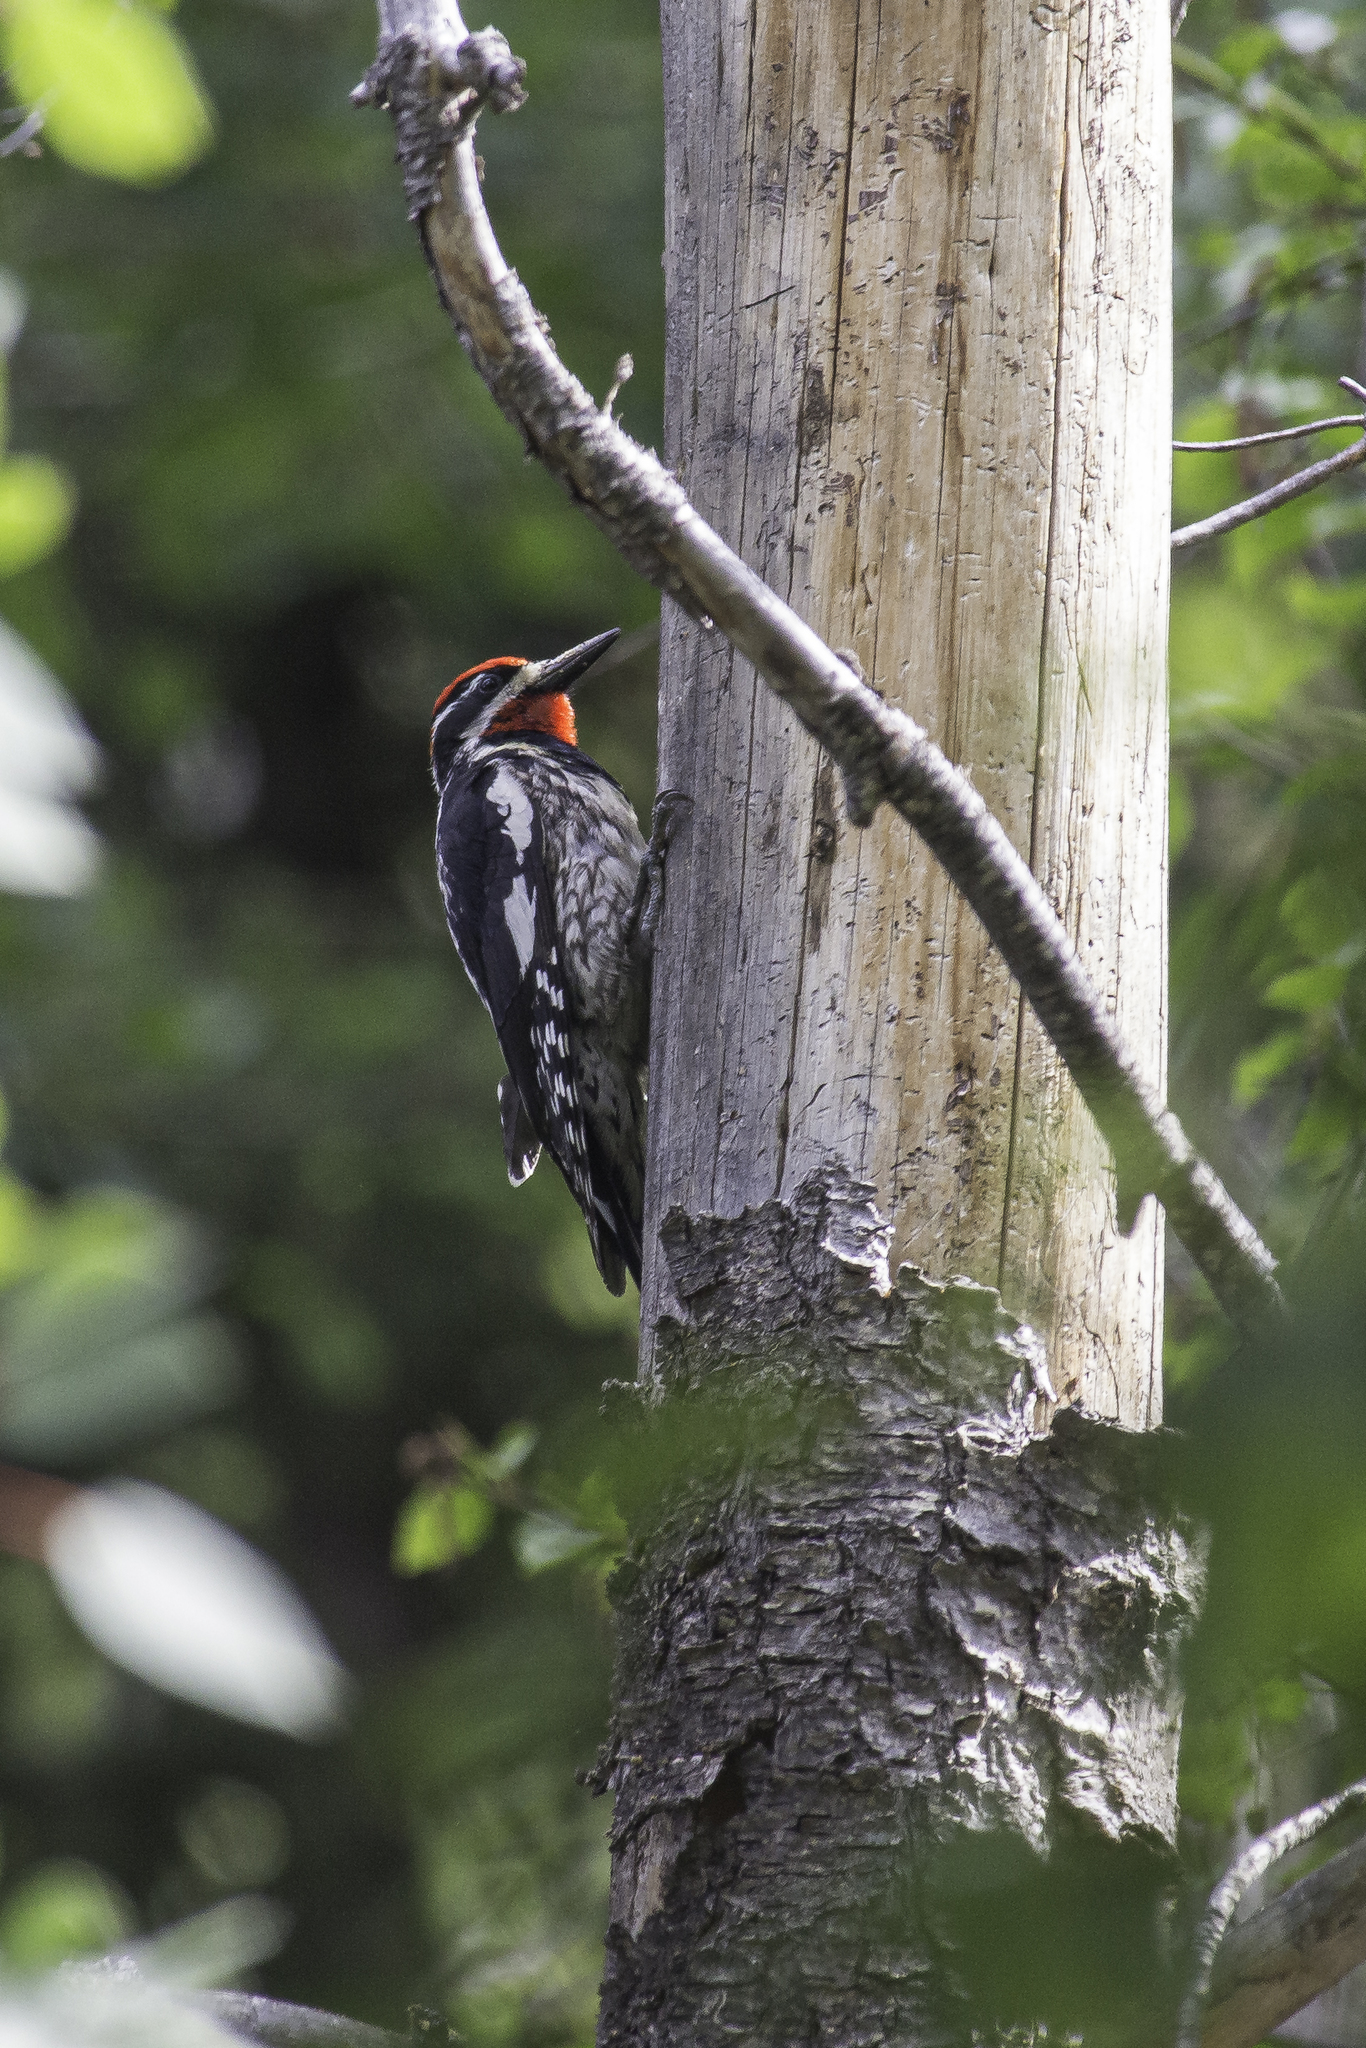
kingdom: Animalia
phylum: Chordata
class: Aves
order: Piciformes
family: Picidae
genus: Sphyrapicus
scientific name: Sphyrapicus nuchalis
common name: Red-naped sapsucker
